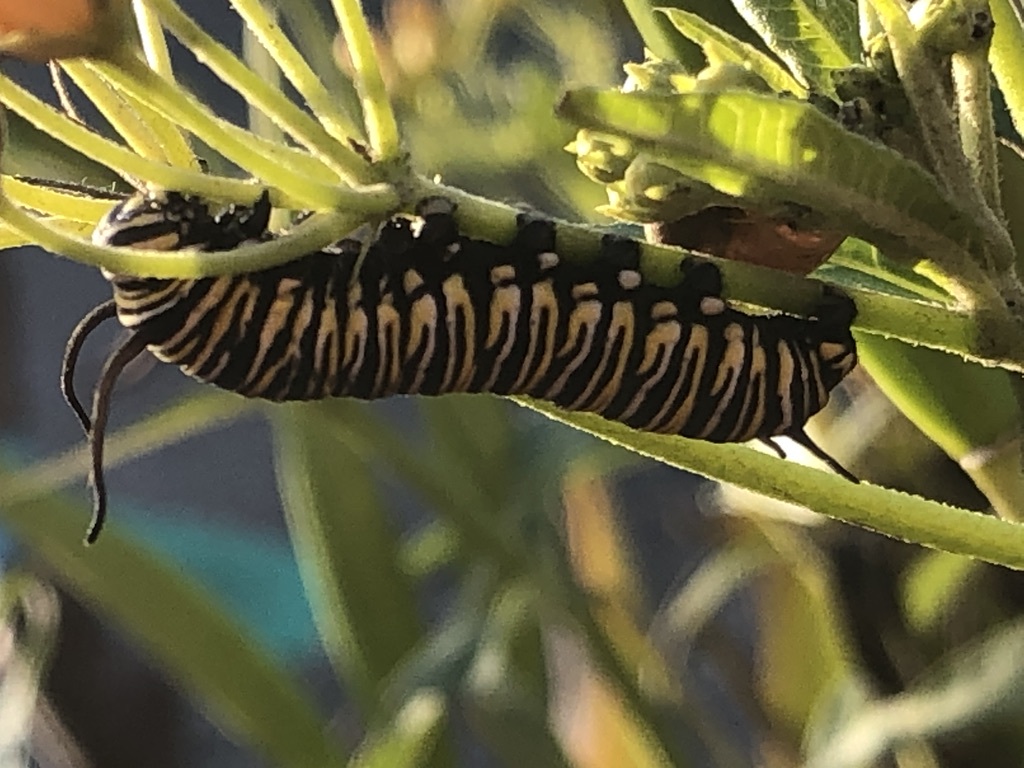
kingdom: Animalia
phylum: Arthropoda
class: Insecta
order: Lepidoptera
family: Nymphalidae
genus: Danaus
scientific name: Danaus plexippus
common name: Monarch
